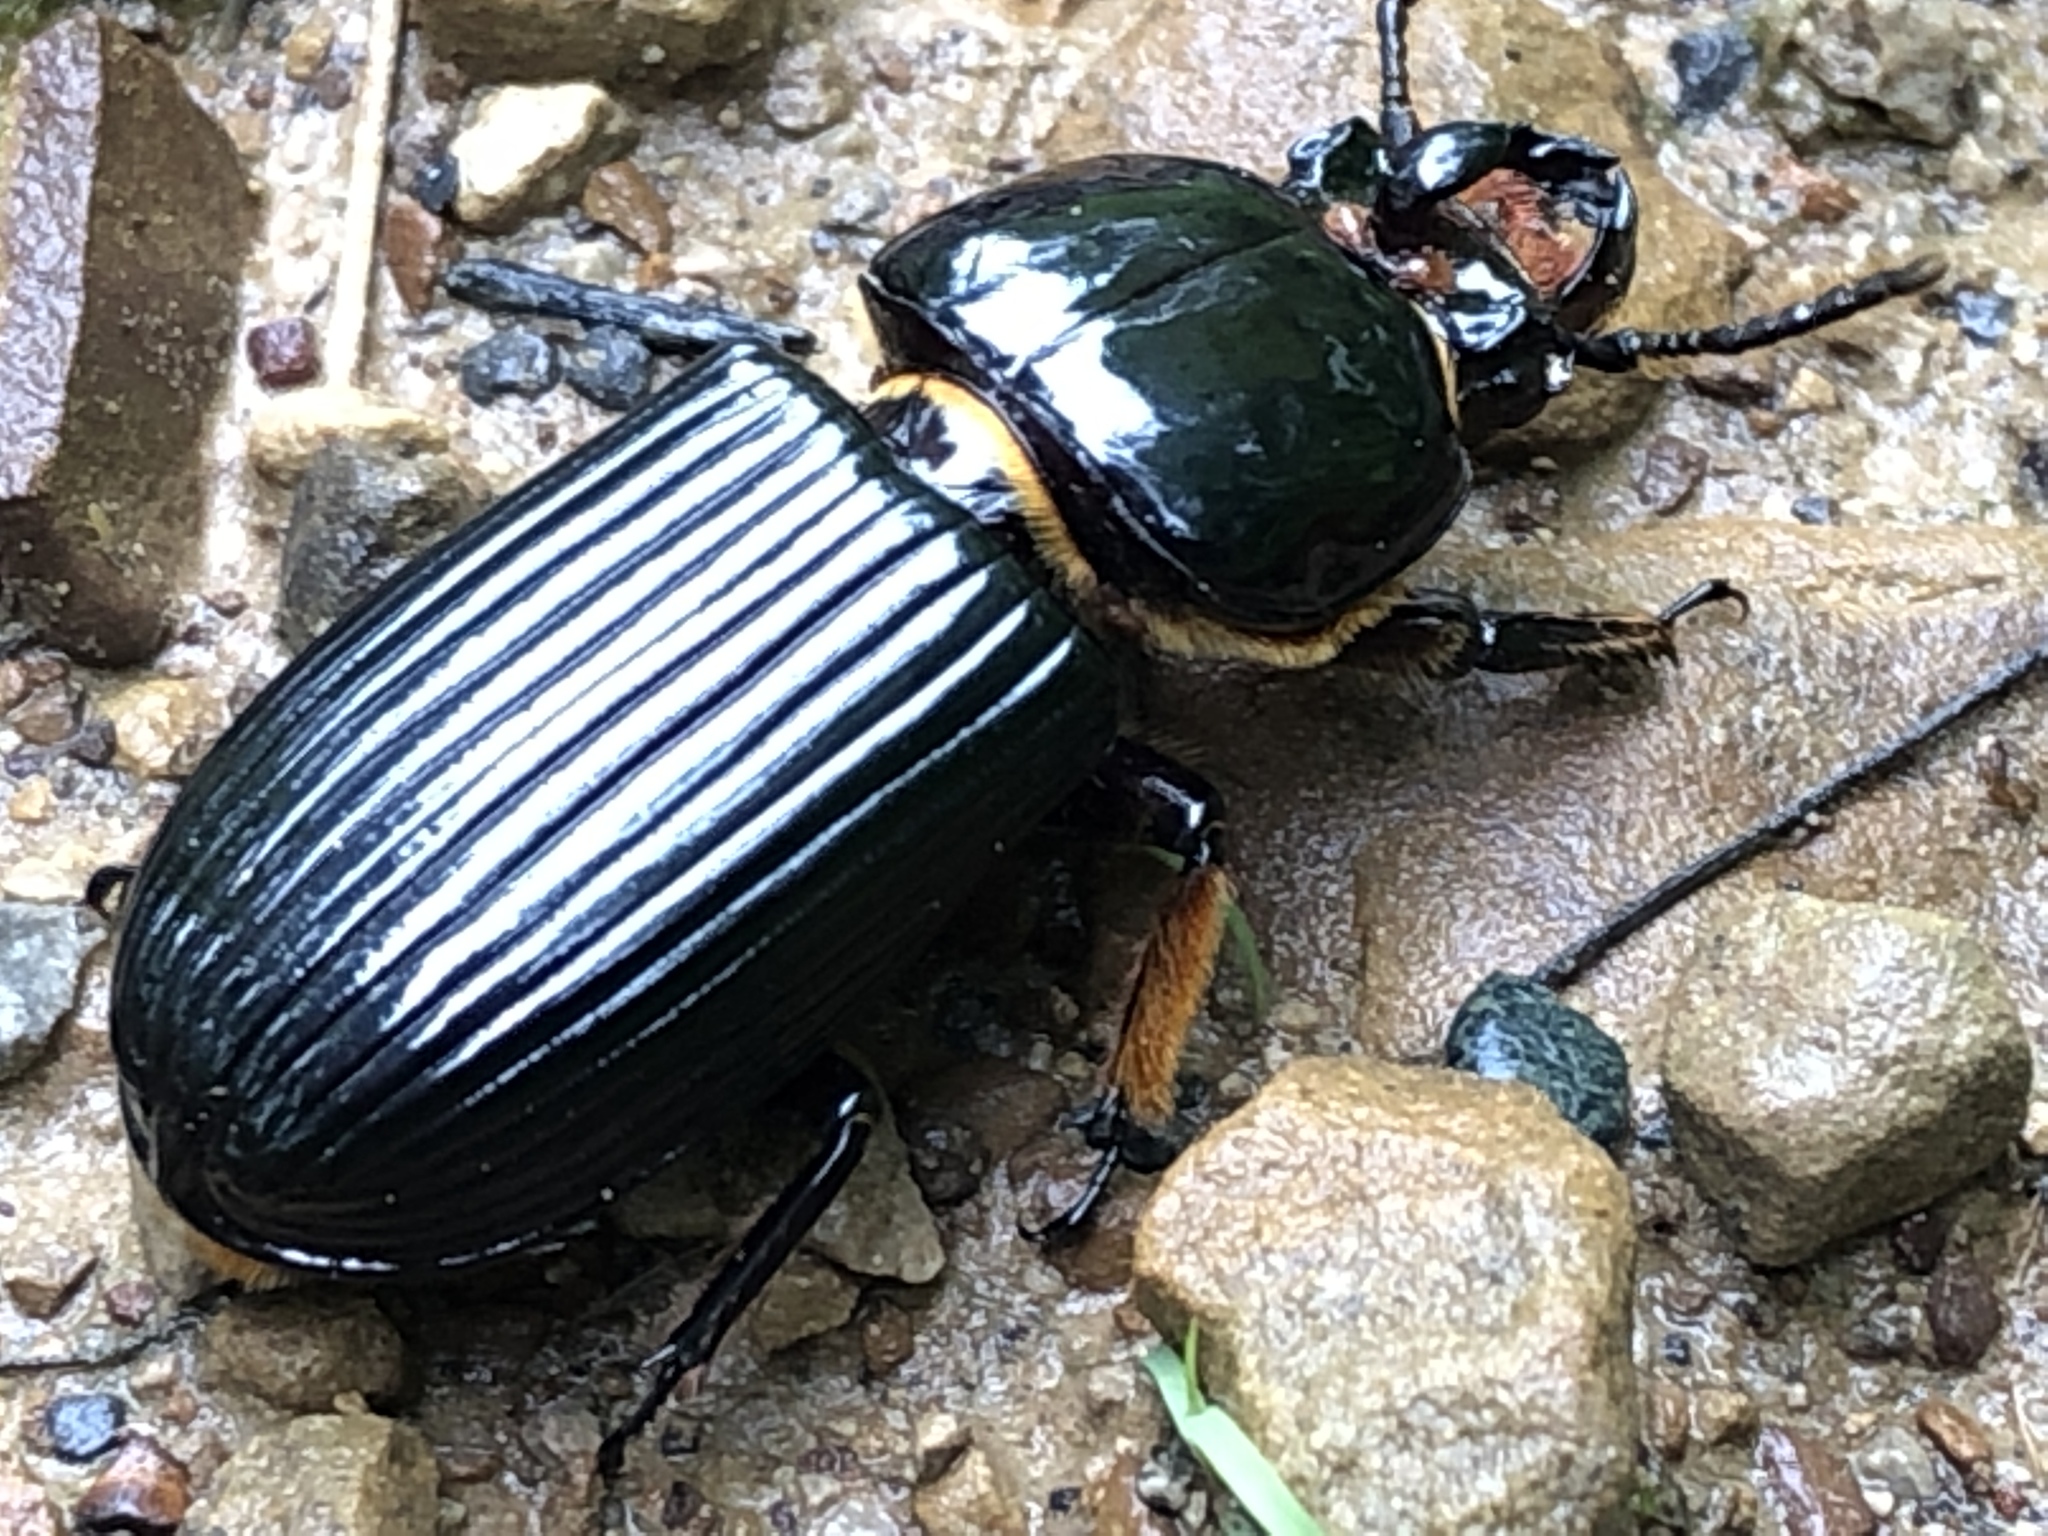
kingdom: Animalia
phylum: Arthropoda
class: Insecta
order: Coleoptera
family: Passalidae
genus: Odontotaenius
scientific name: Odontotaenius disjunctus
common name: Patent leather beetle
